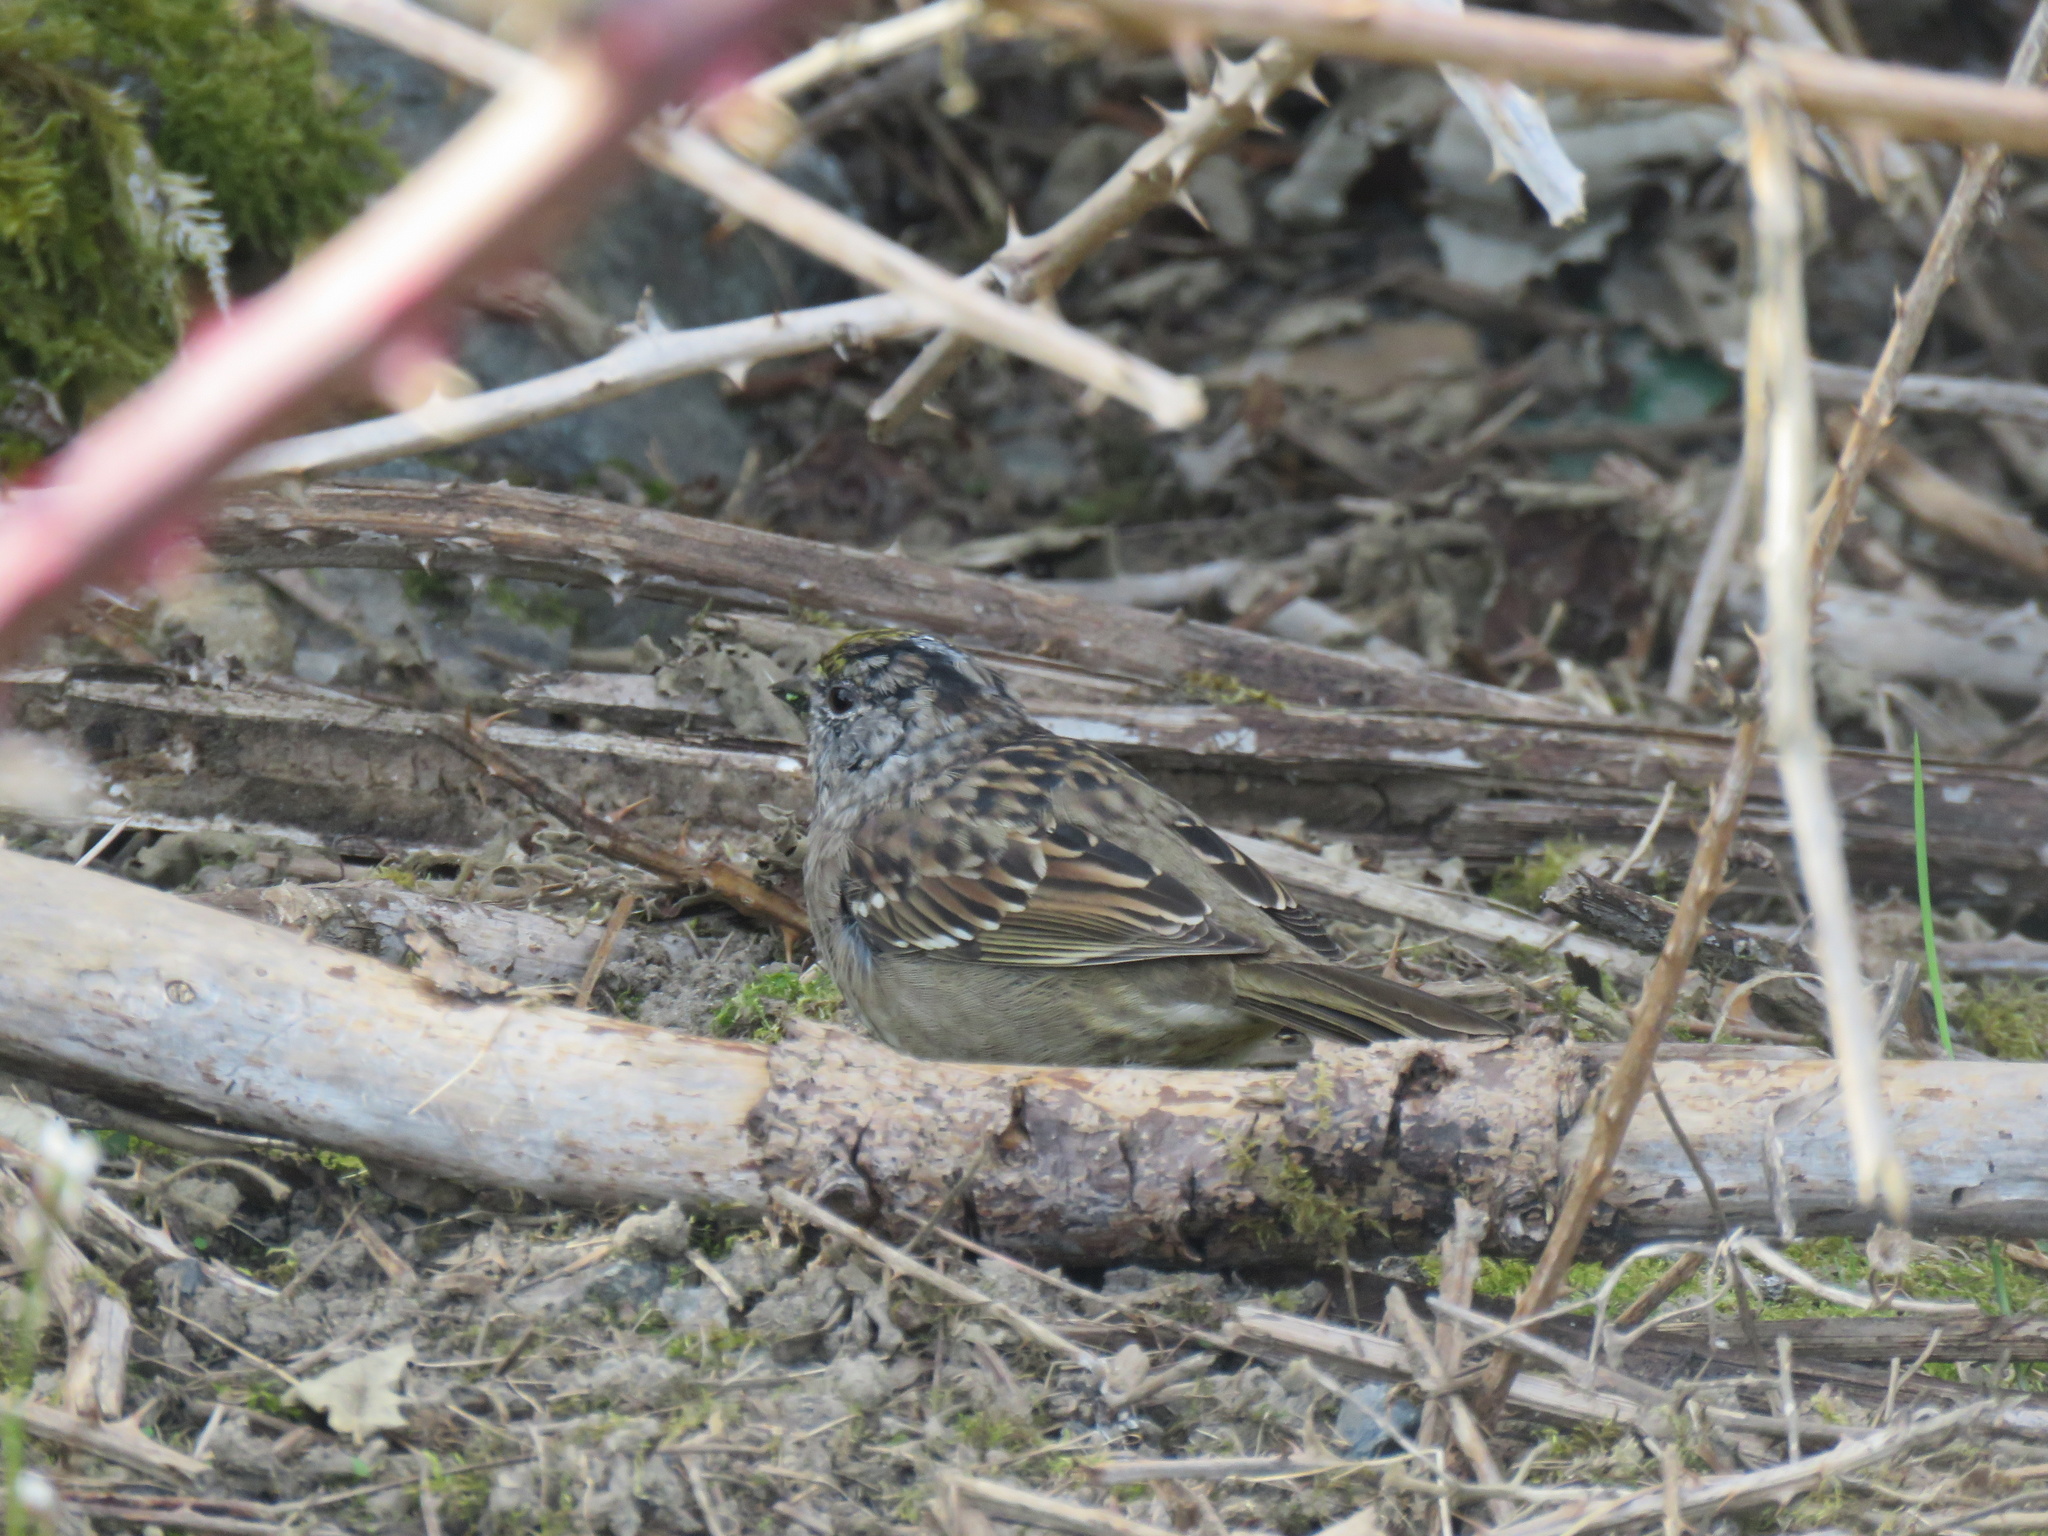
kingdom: Animalia
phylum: Chordata
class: Aves
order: Passeriformes
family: Passerellidae
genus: Zonotrichia
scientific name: Zonotrichia atricapilla
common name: Golden-crowned sparrow
